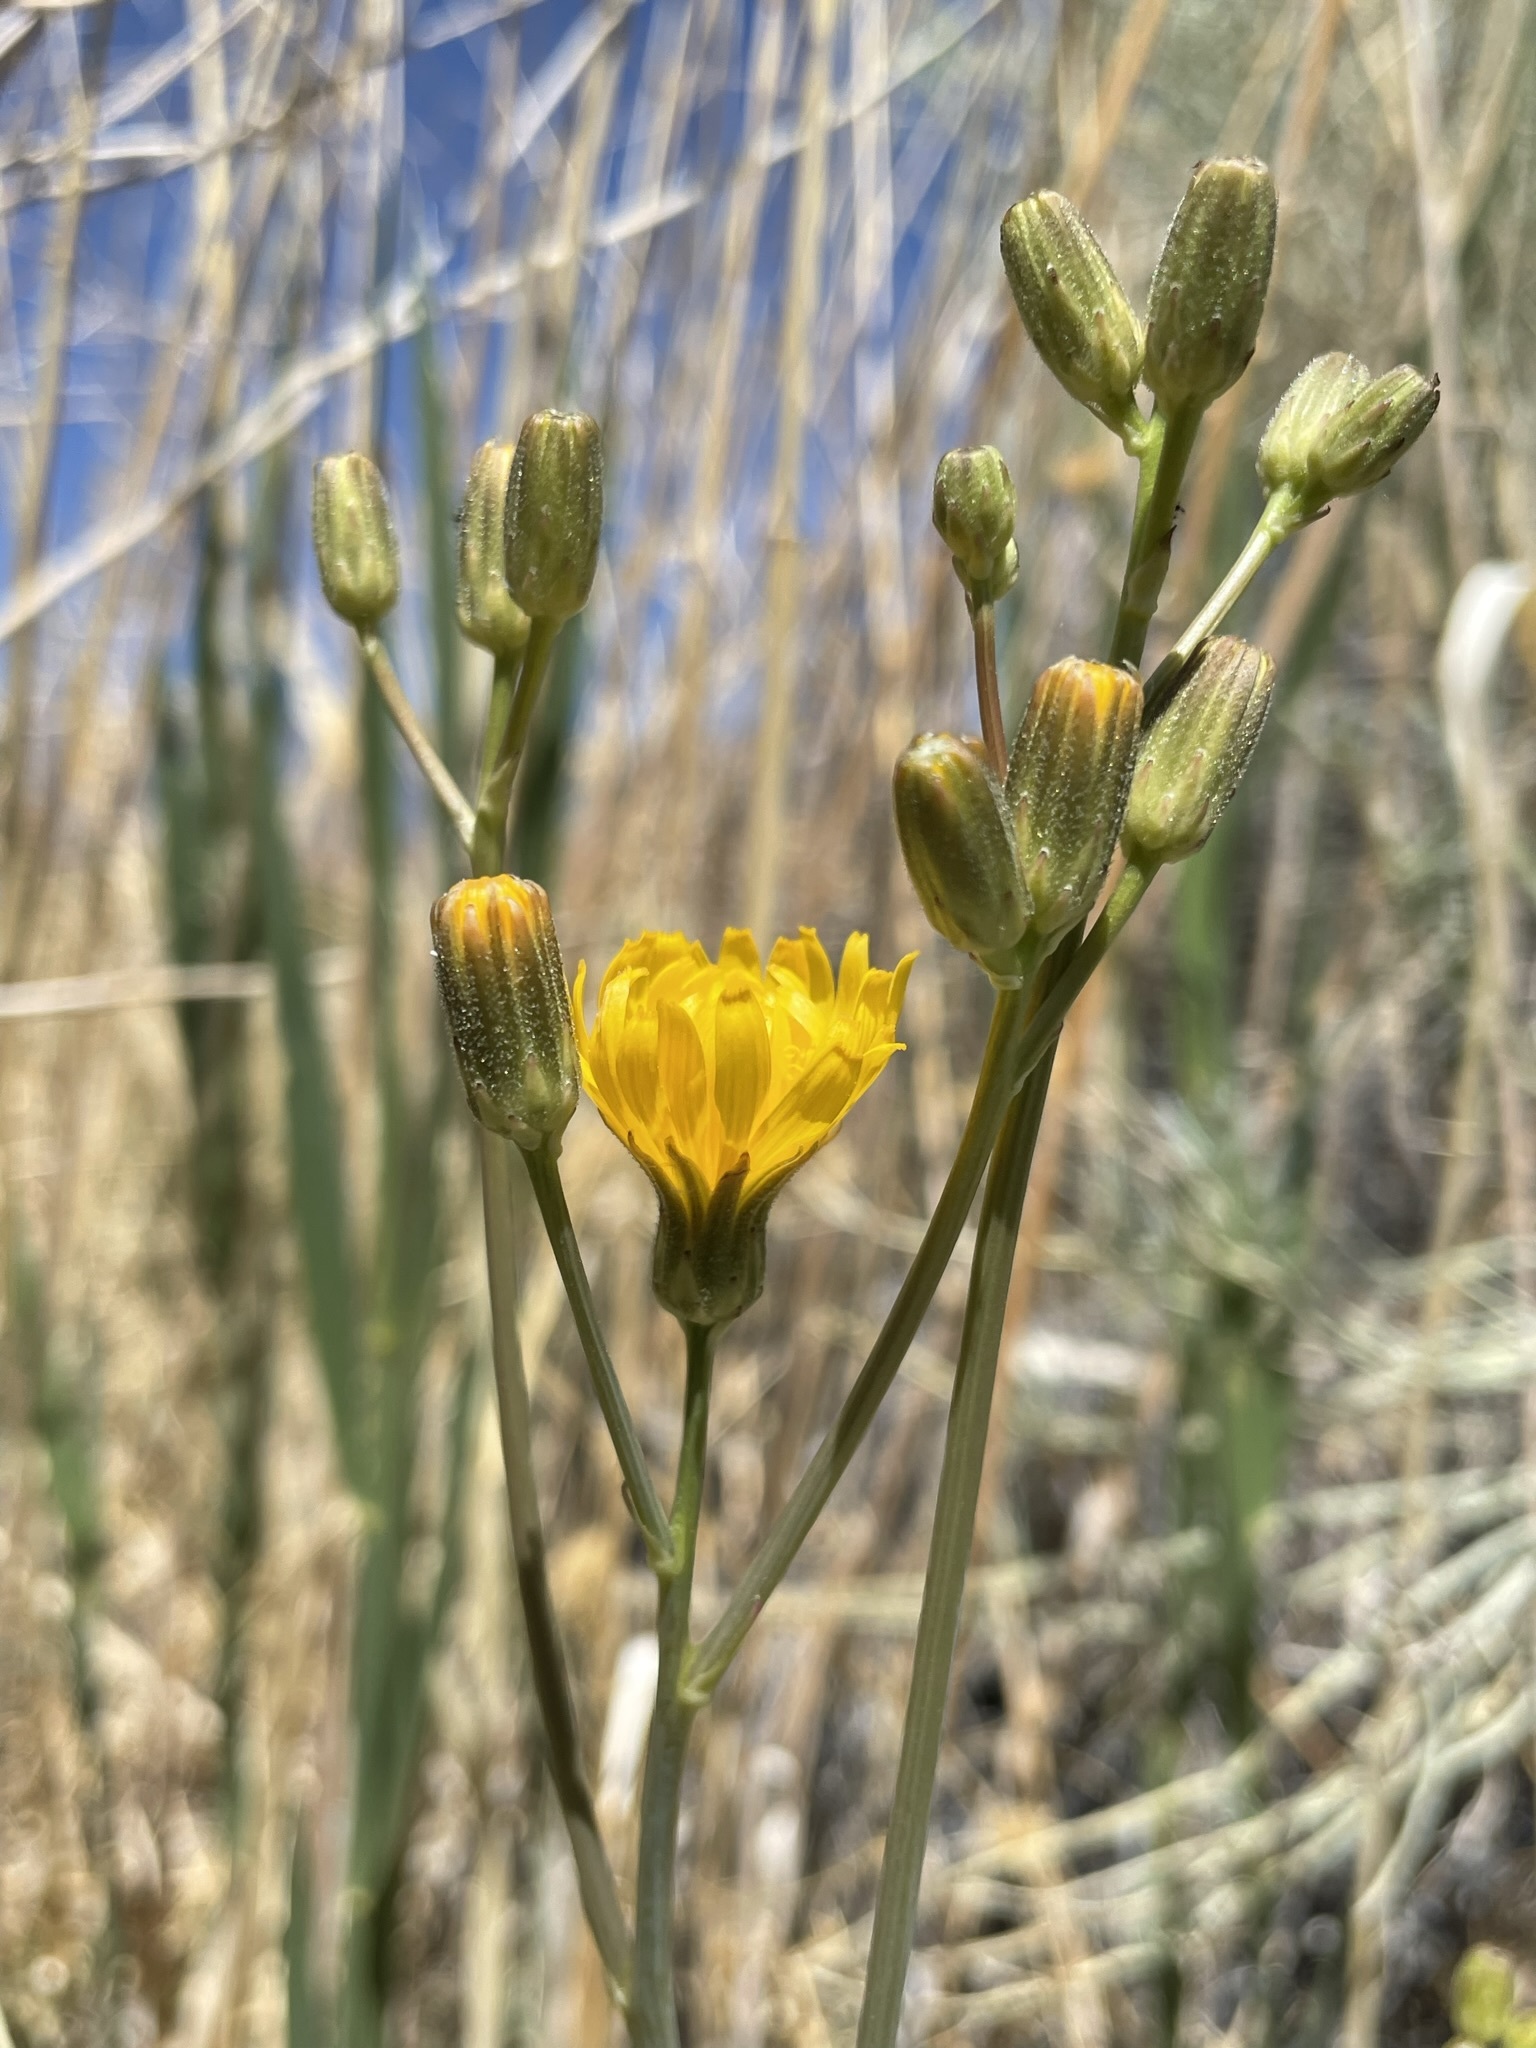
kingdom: Plantae
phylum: Tracheophyta
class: Magnoliopsida
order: Asterales
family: Asteraceae
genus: Crepis
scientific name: Crepis runcinata
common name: Dandelion hawksbeard
